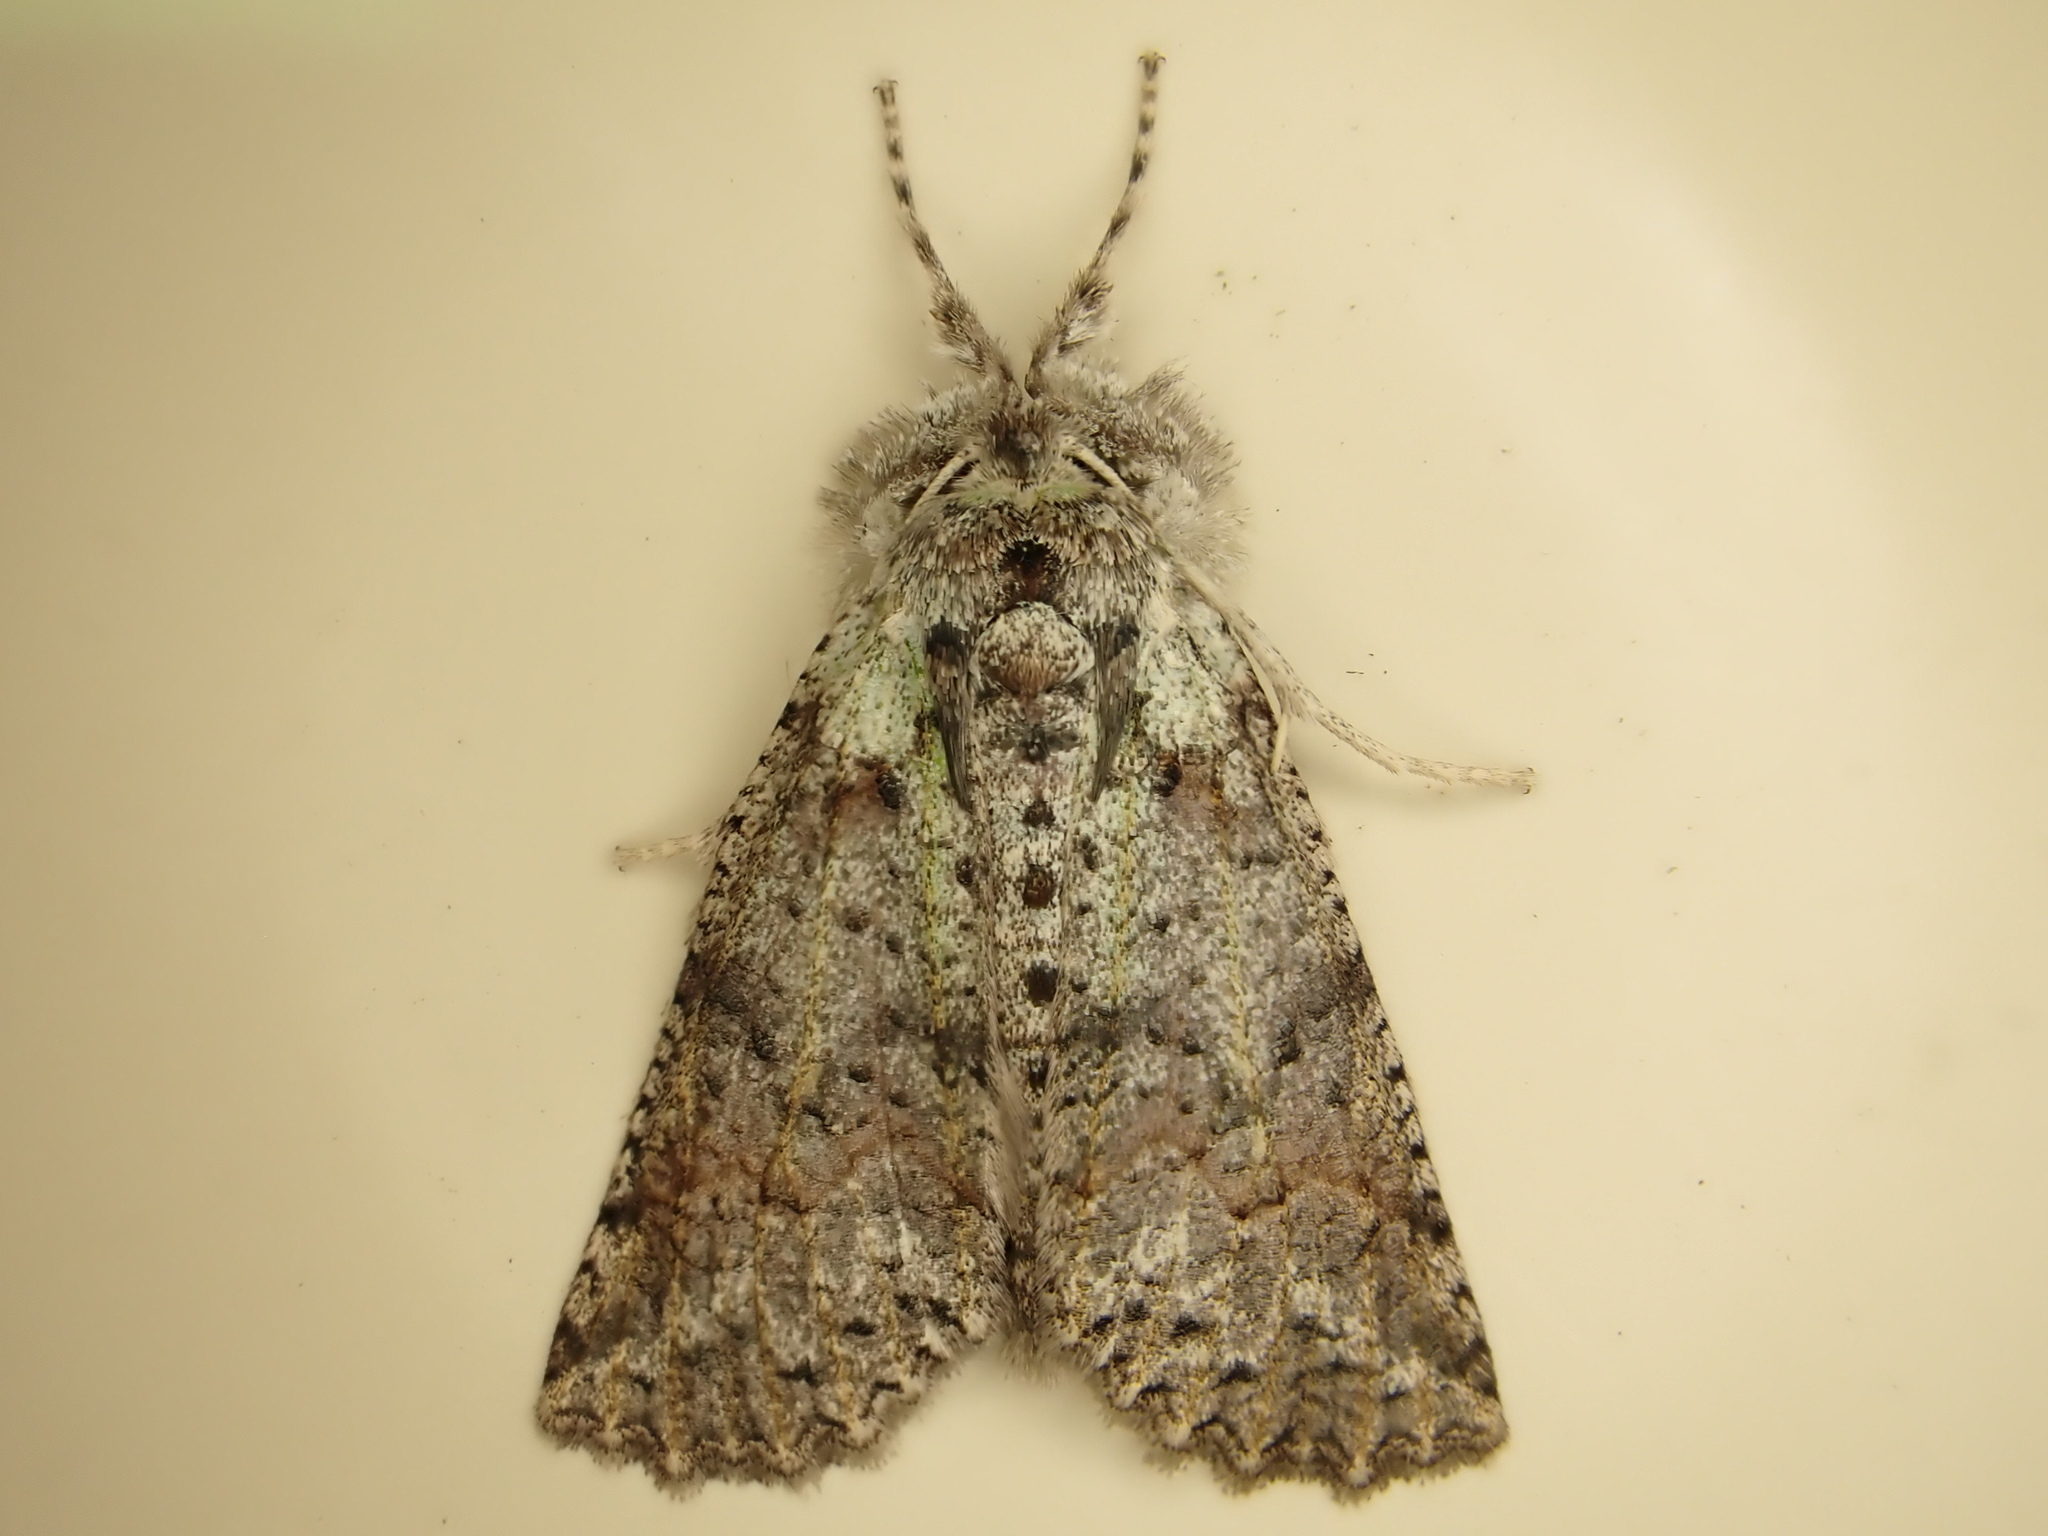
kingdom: Animalia
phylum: Arthropoda
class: Insecta
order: Lepidoptera
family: Geometridae
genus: Declana
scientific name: Declana floccosa
